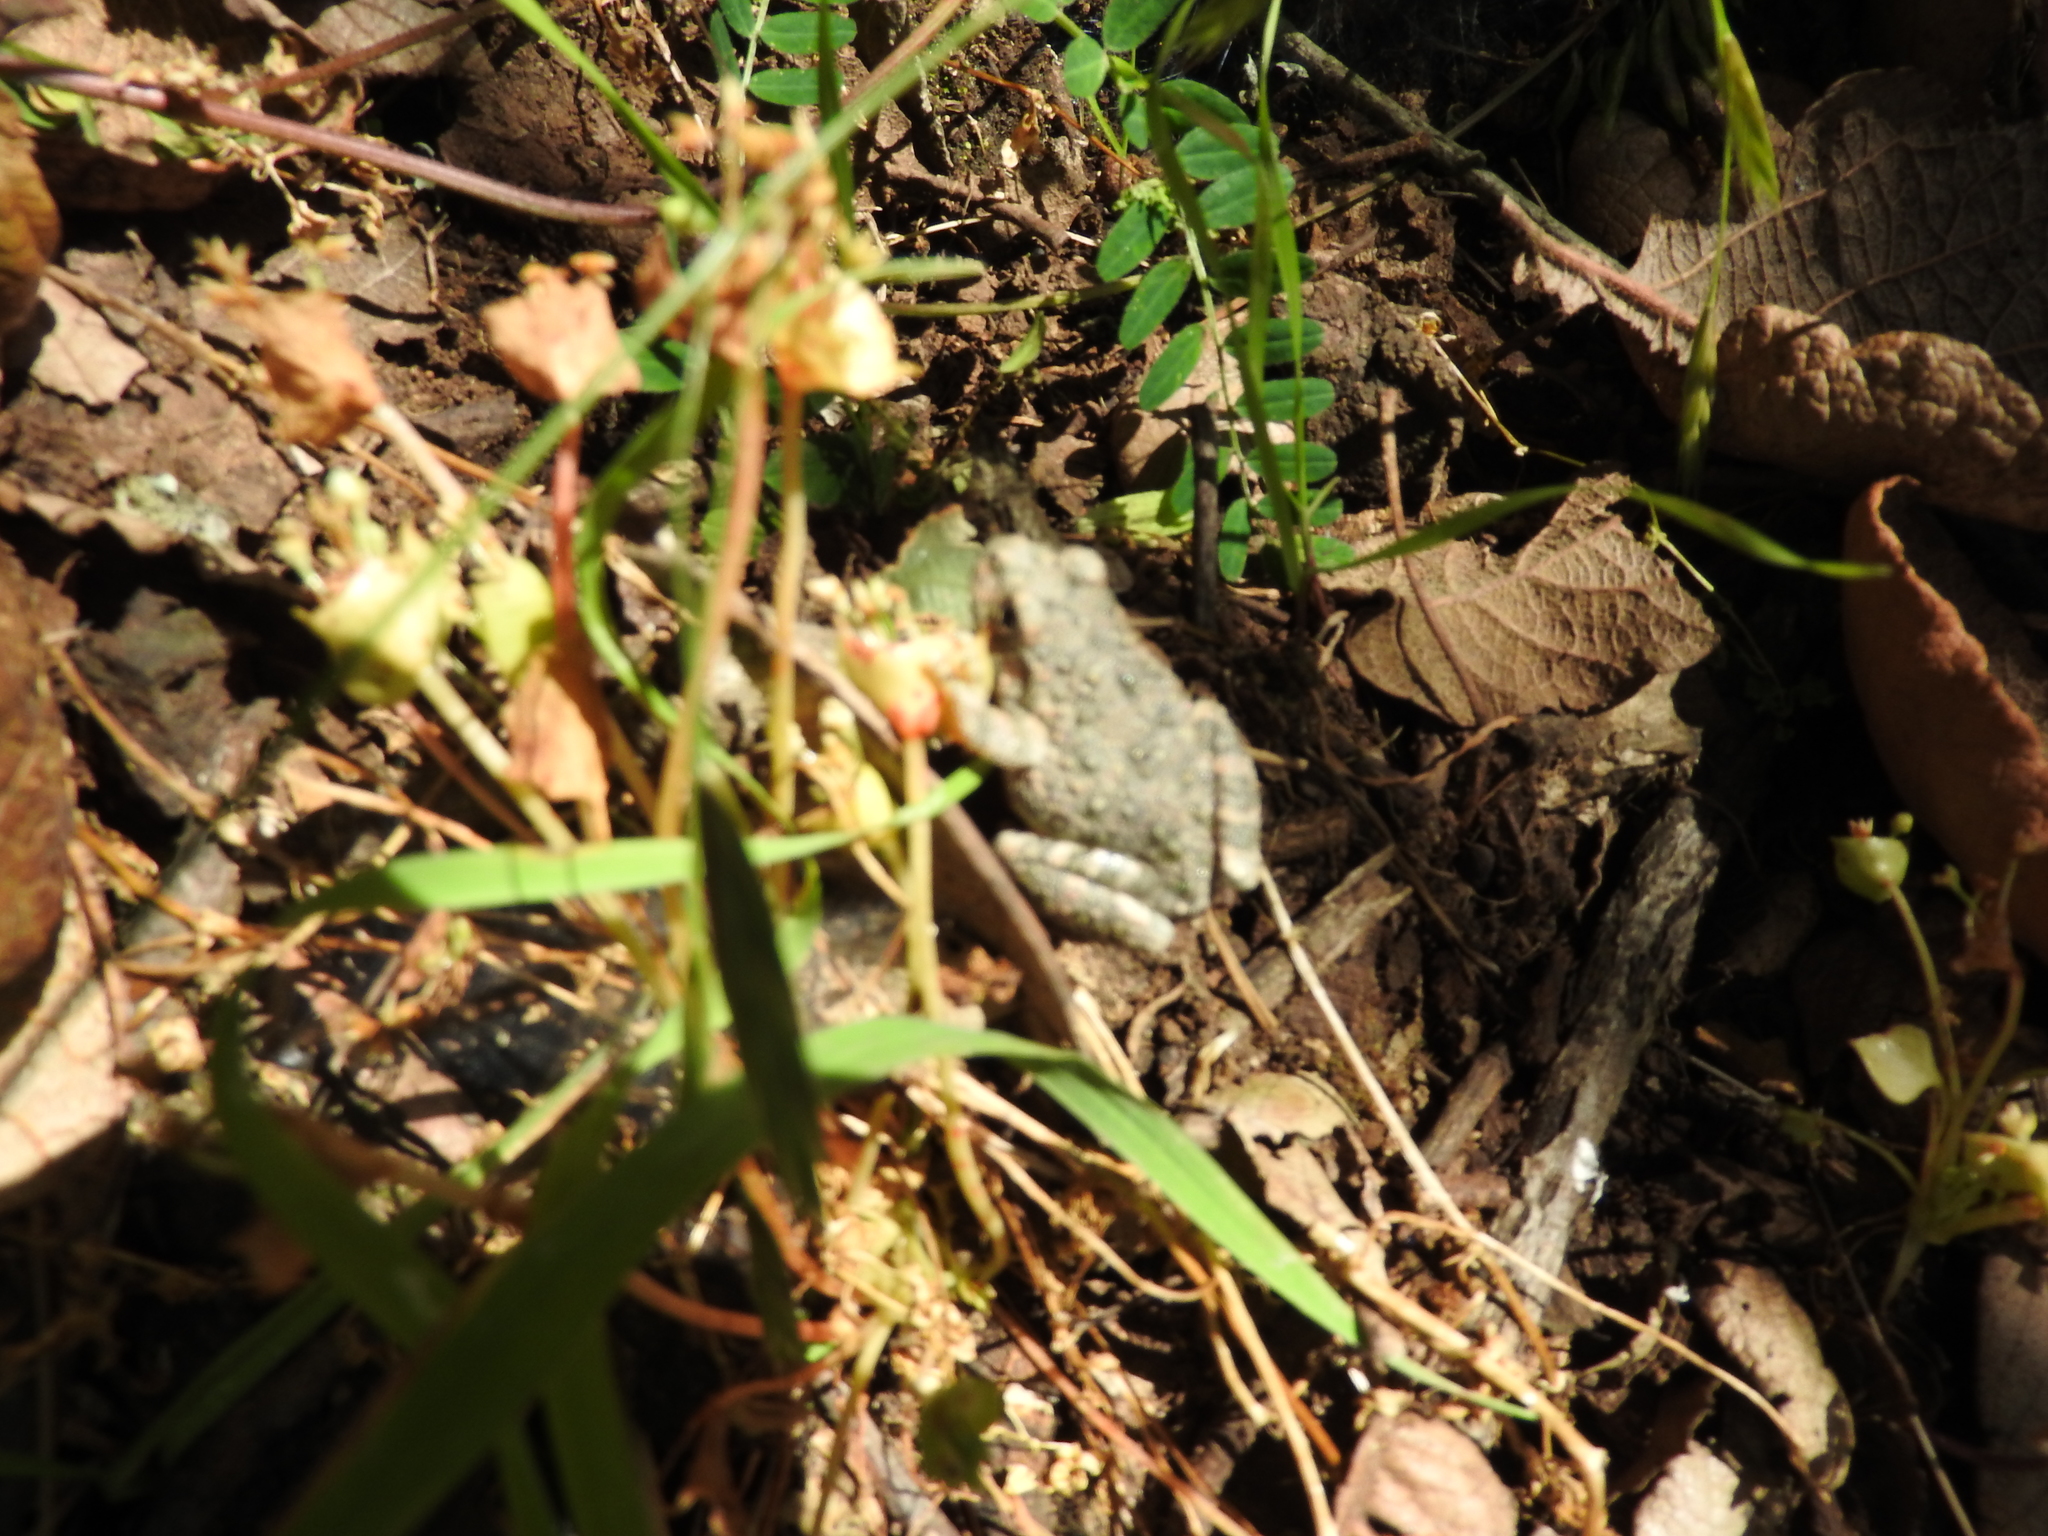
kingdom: Animalia
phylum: Chordata
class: Amphibia
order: Anura
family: Hylidae
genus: Dryophytes
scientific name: Dryophytes arenicolor
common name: Canyon treefrog
